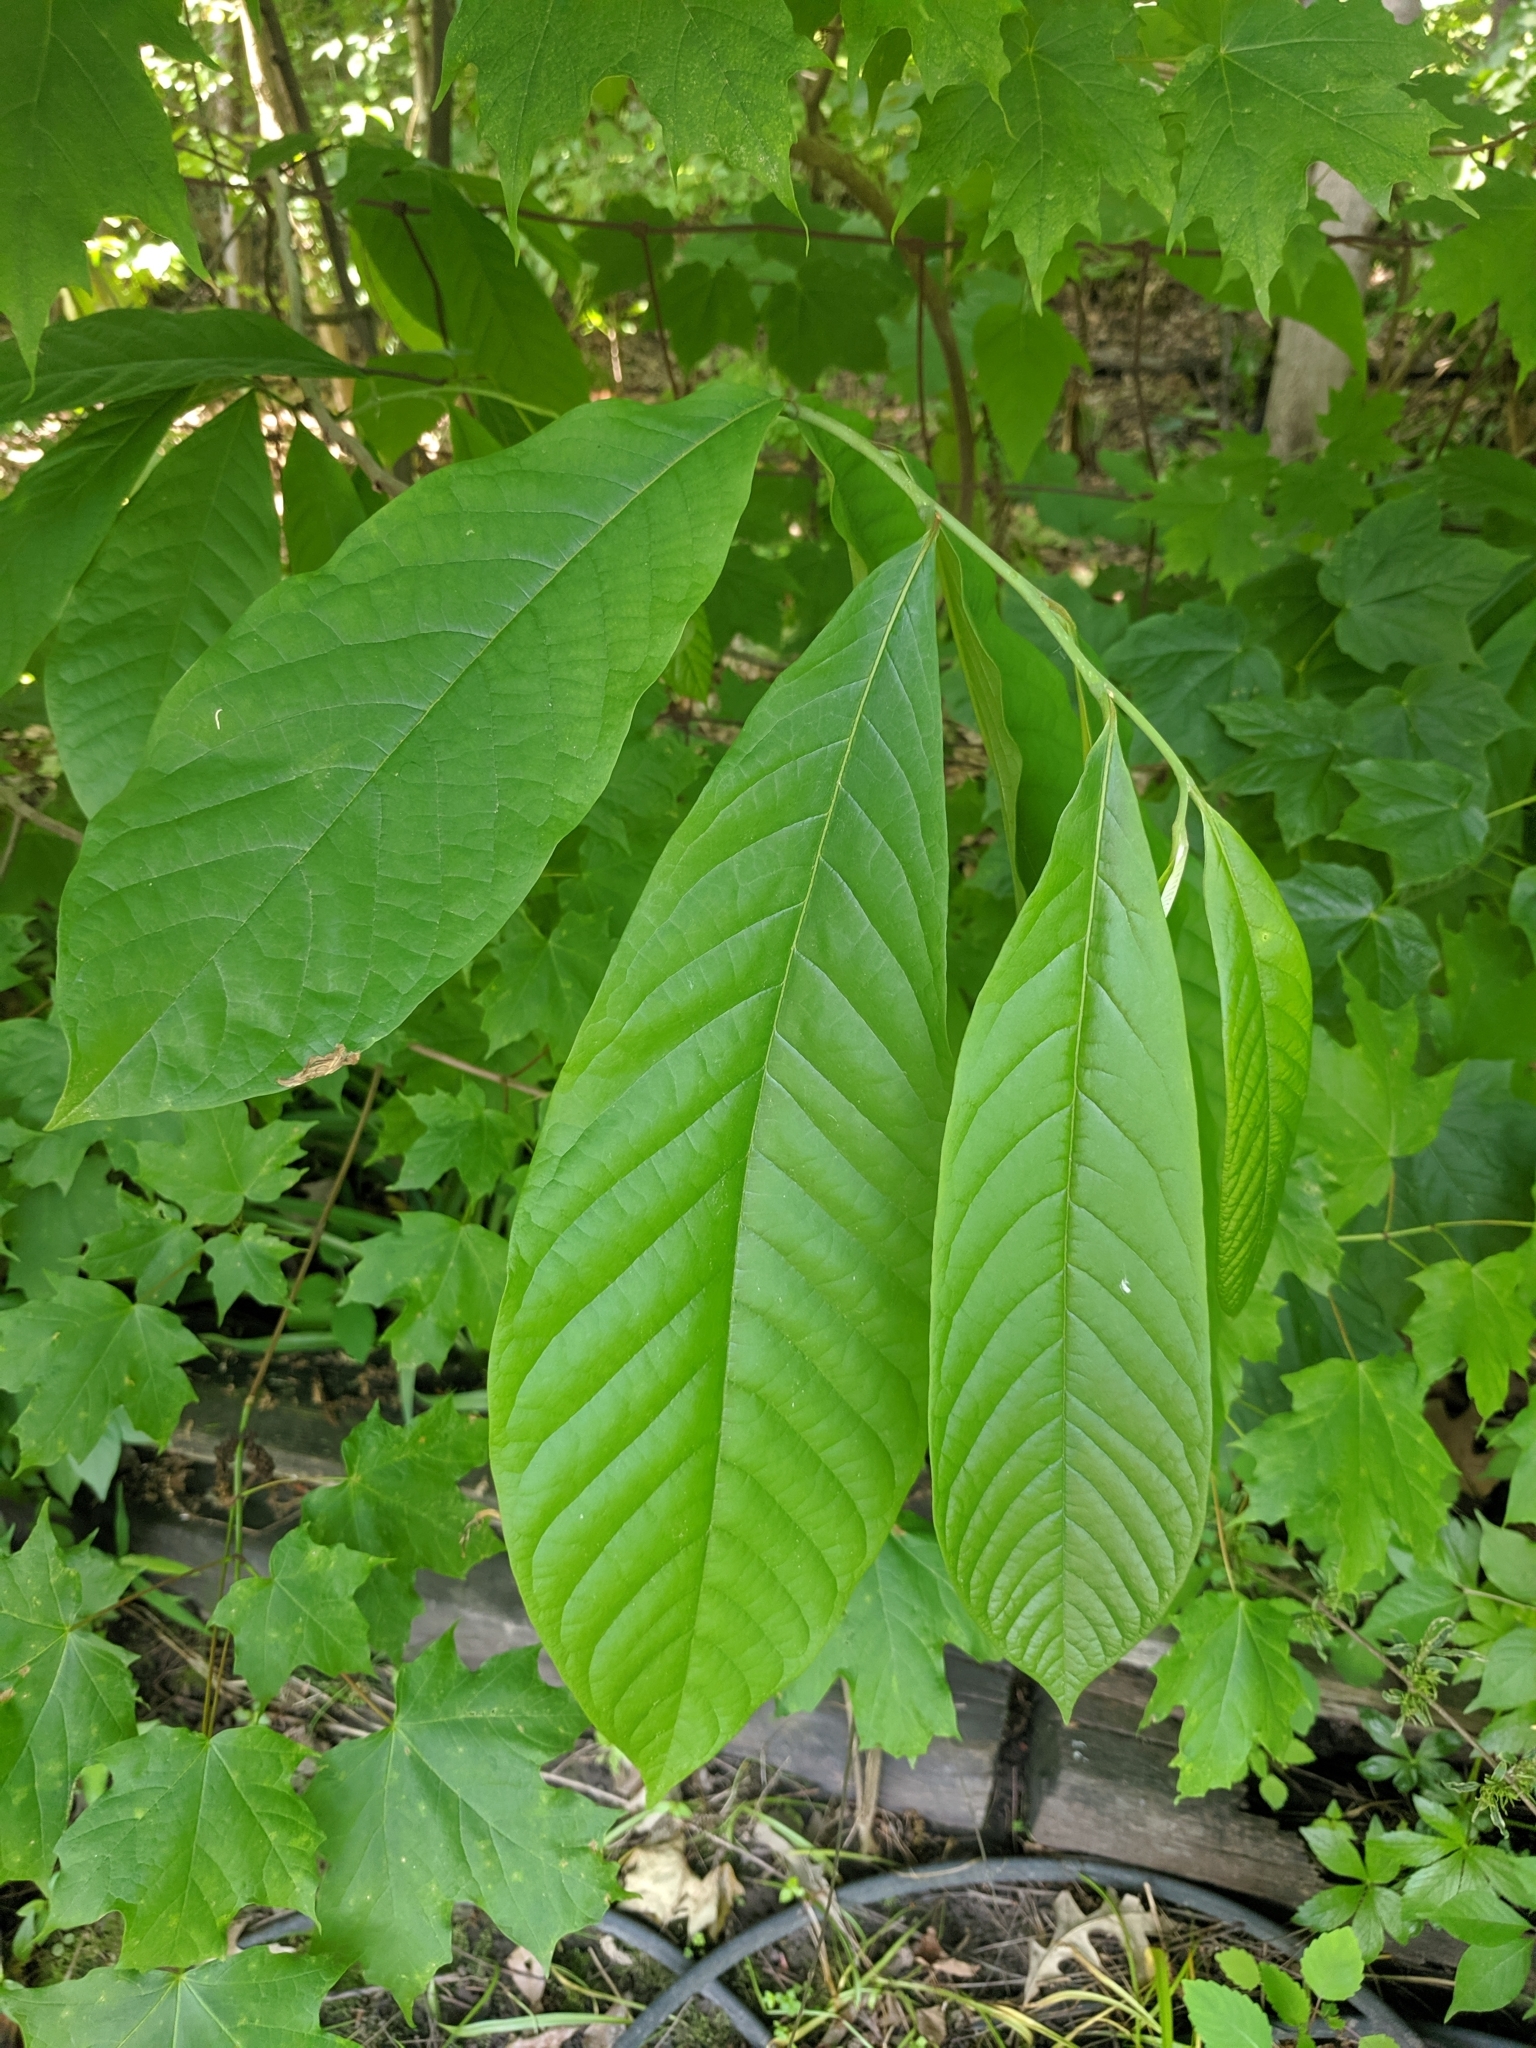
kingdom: Plantae
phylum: Tracheophyta
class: Magnoliopsida
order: Magnoliales
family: Annonaceae
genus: Asimina
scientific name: Asimina triloba
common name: Dog-banana
